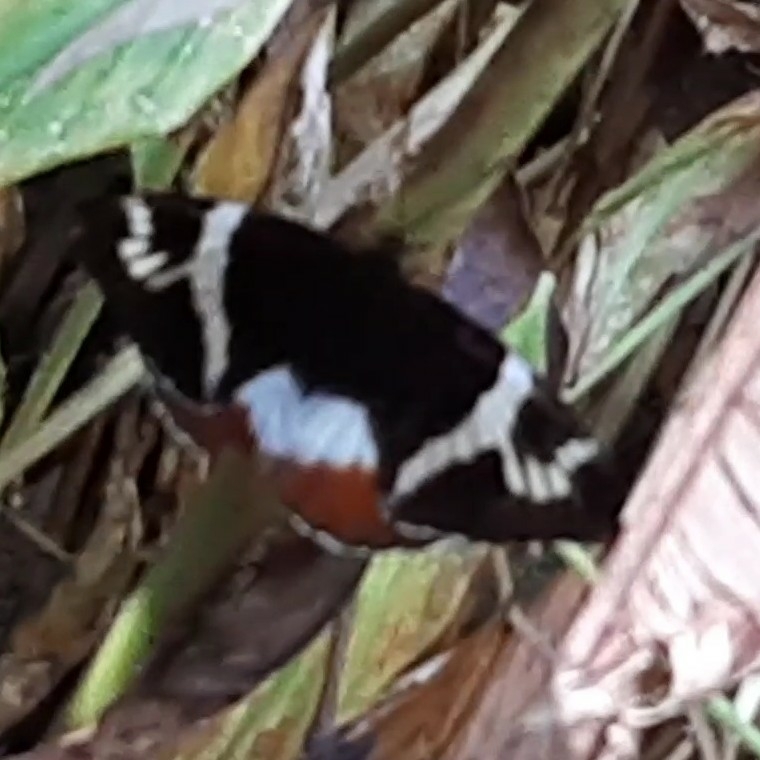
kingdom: Animalia
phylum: Arthropoda
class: Insecta
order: Lepidoptera
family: Castniidae
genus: Castniomera
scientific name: Castniomera atymnius
